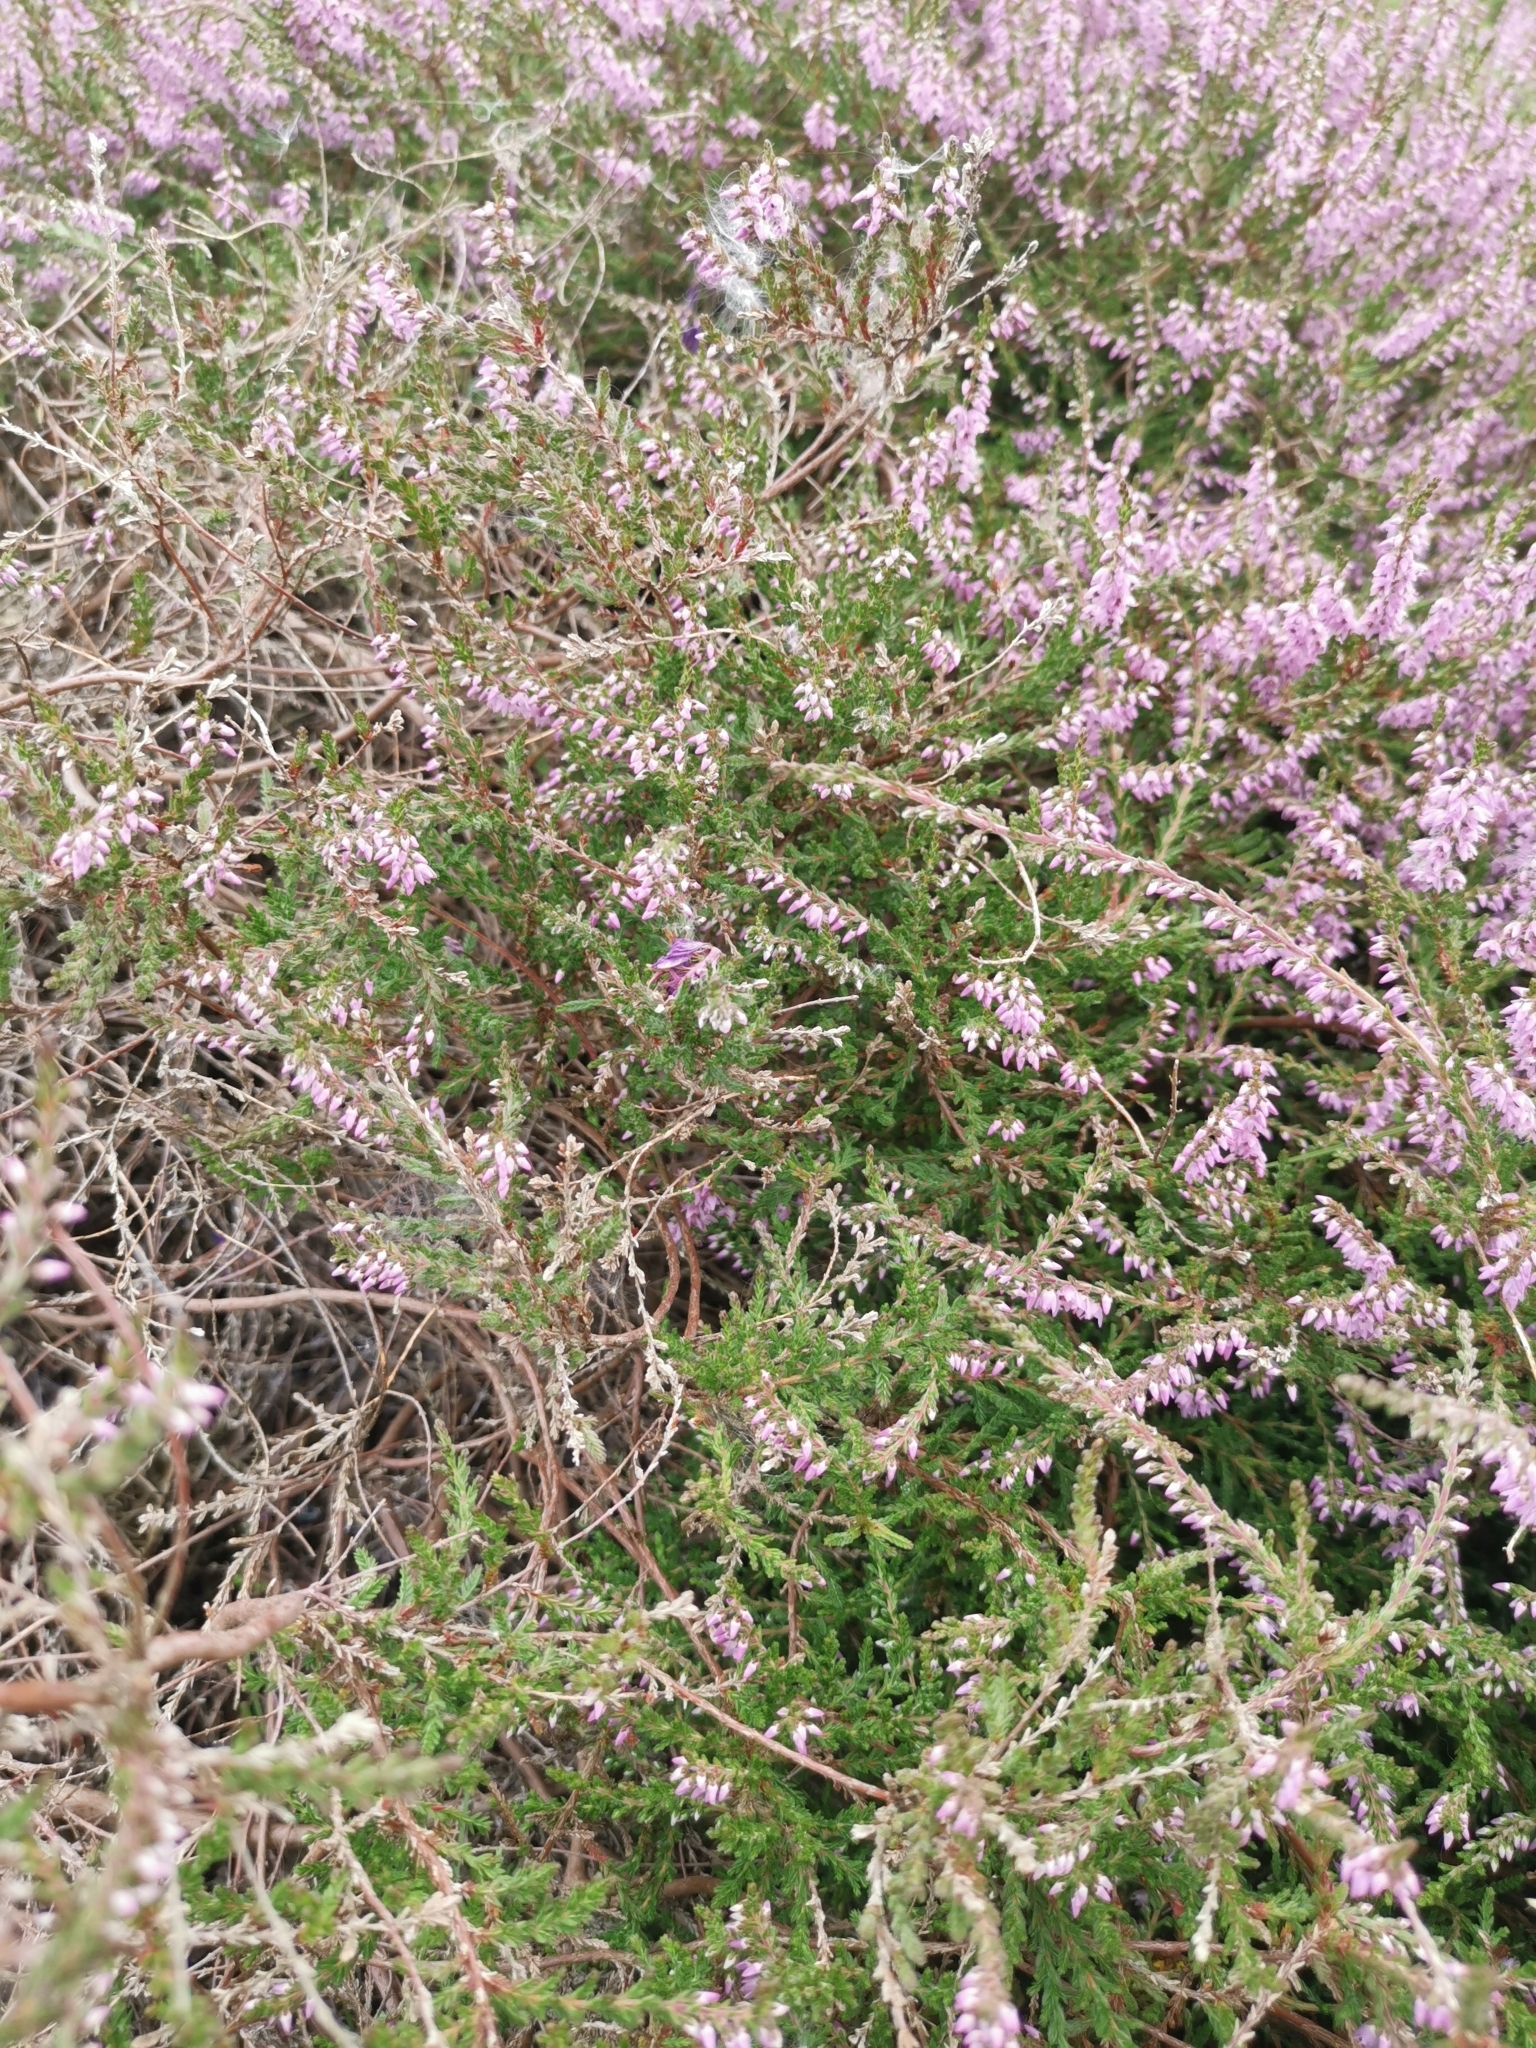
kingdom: Plantae
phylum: Tracheophyta
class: Magnoliopsida
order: Ericales
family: Ericaceae
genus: Calluna
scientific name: Calluna vulgaris
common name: Heather
